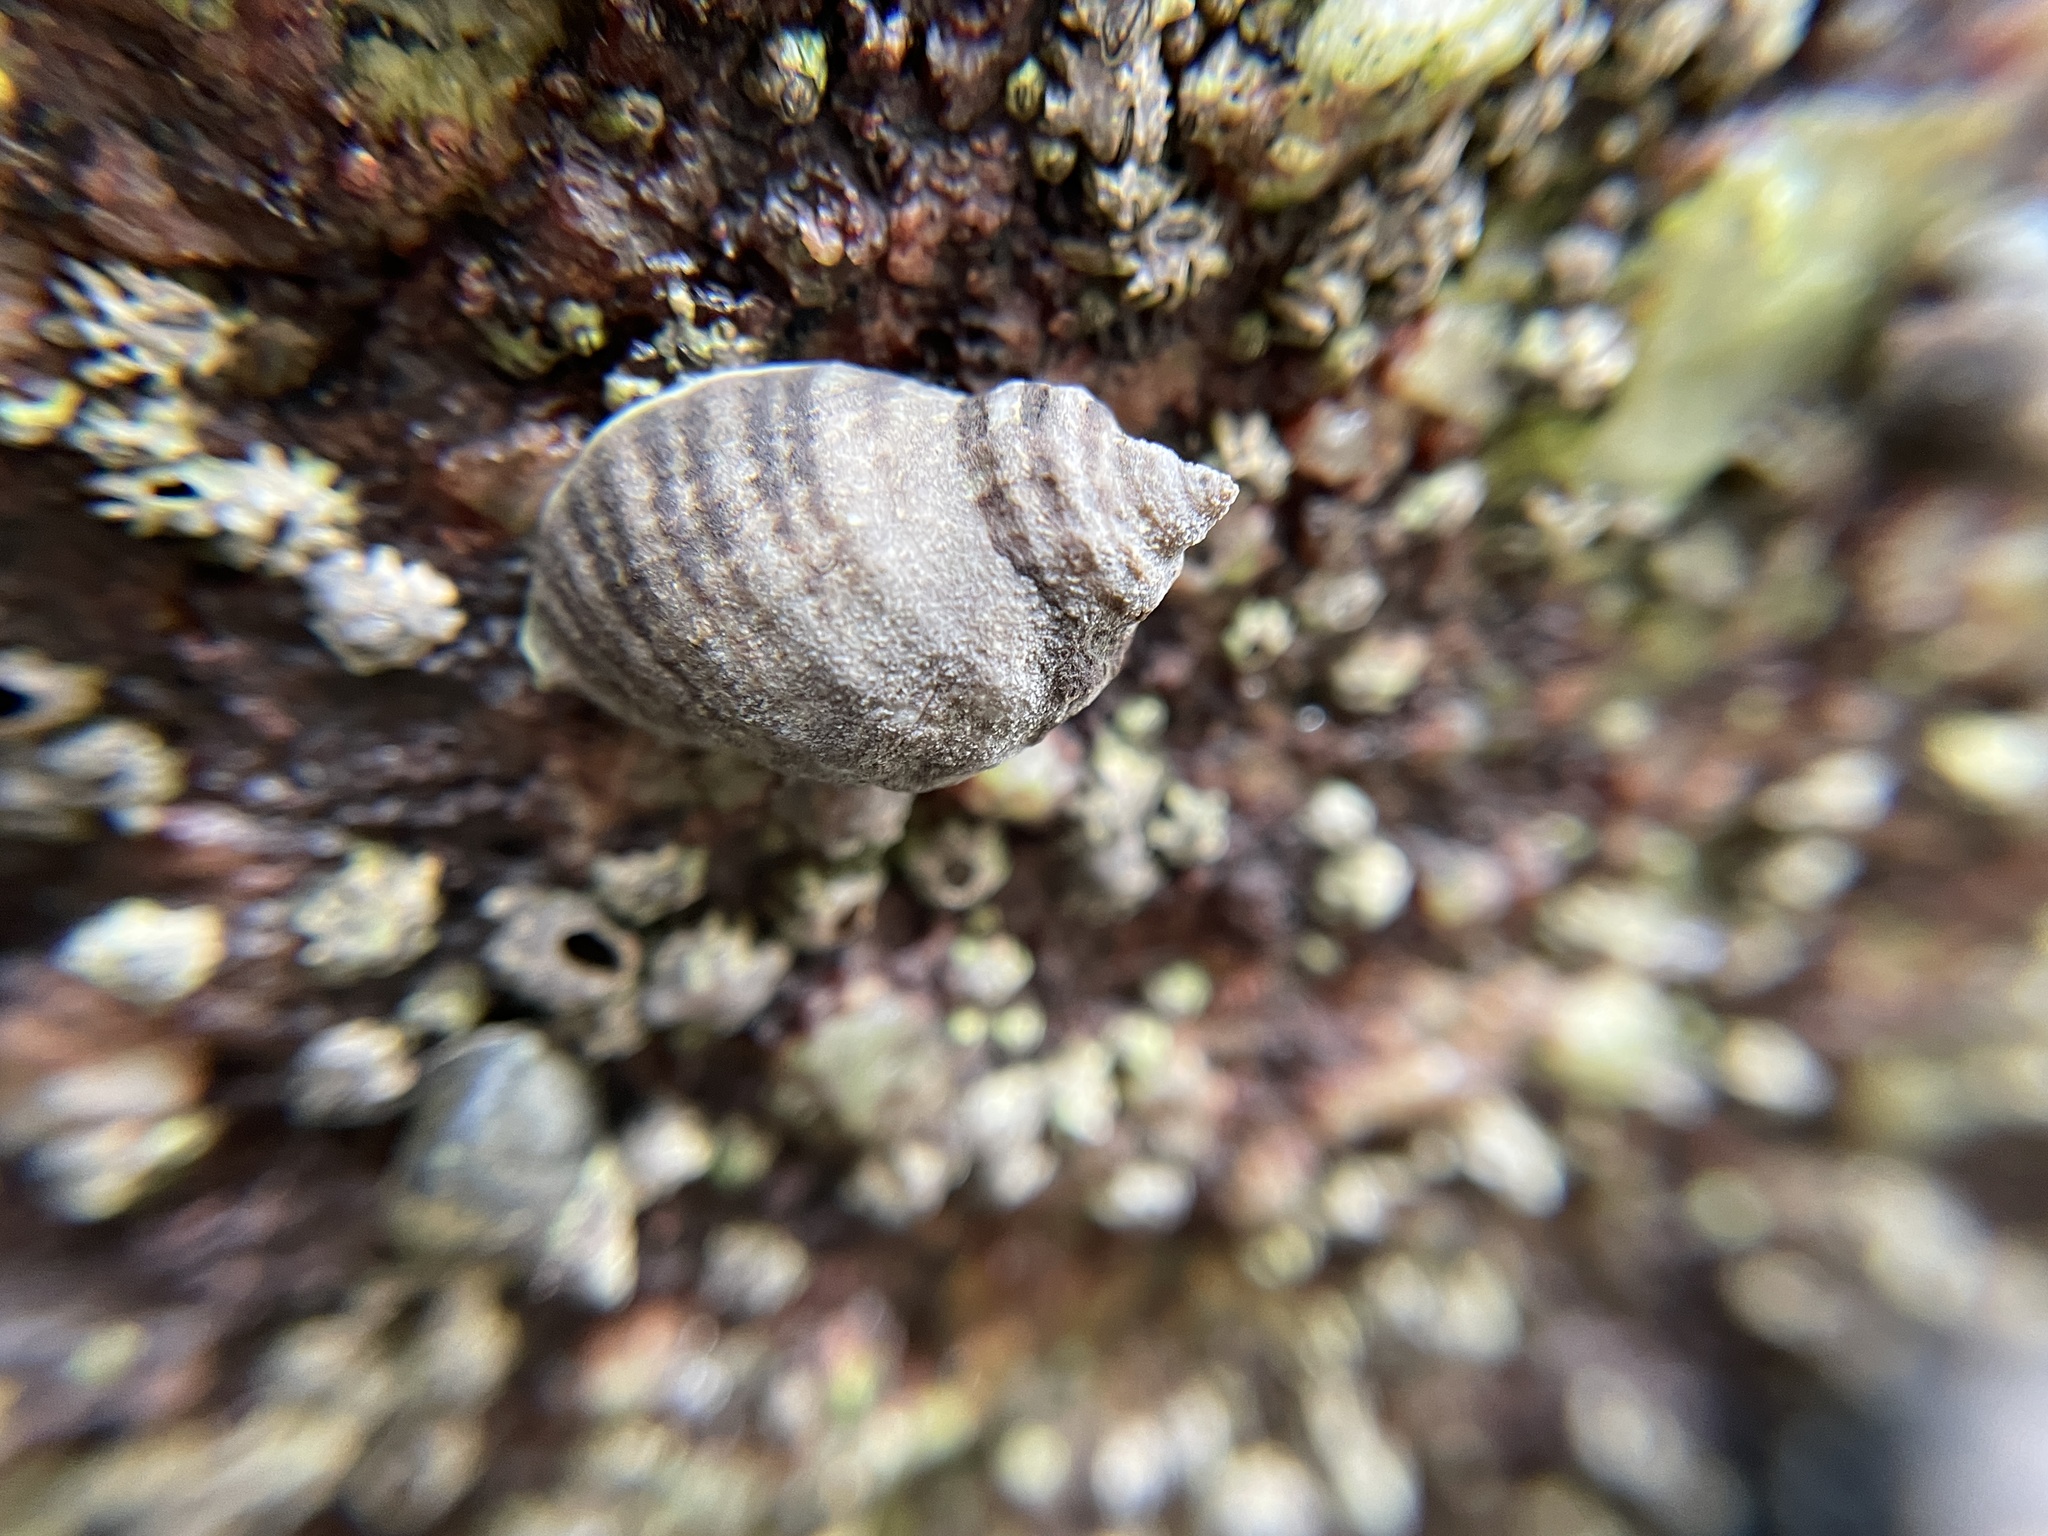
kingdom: Animalia
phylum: Mollusca
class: Gastropoda
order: Neogastropoda
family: Muricidae
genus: Nucella
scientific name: Nucella ostrina
